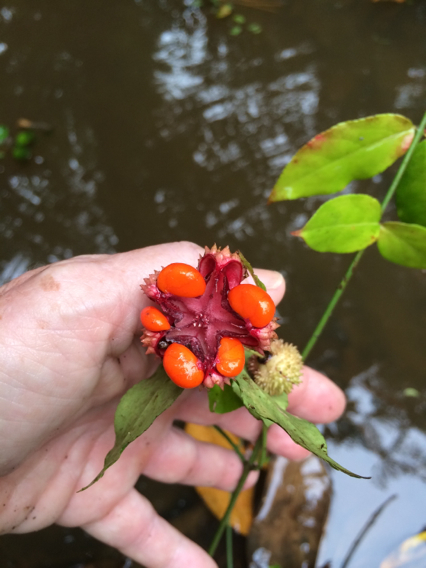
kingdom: Plantae
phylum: Tracheophyta
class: Magnoliopsida
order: Celastrales
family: Celastraceae
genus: Euonymus
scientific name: Euonymus americanus
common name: Bursting-heart
